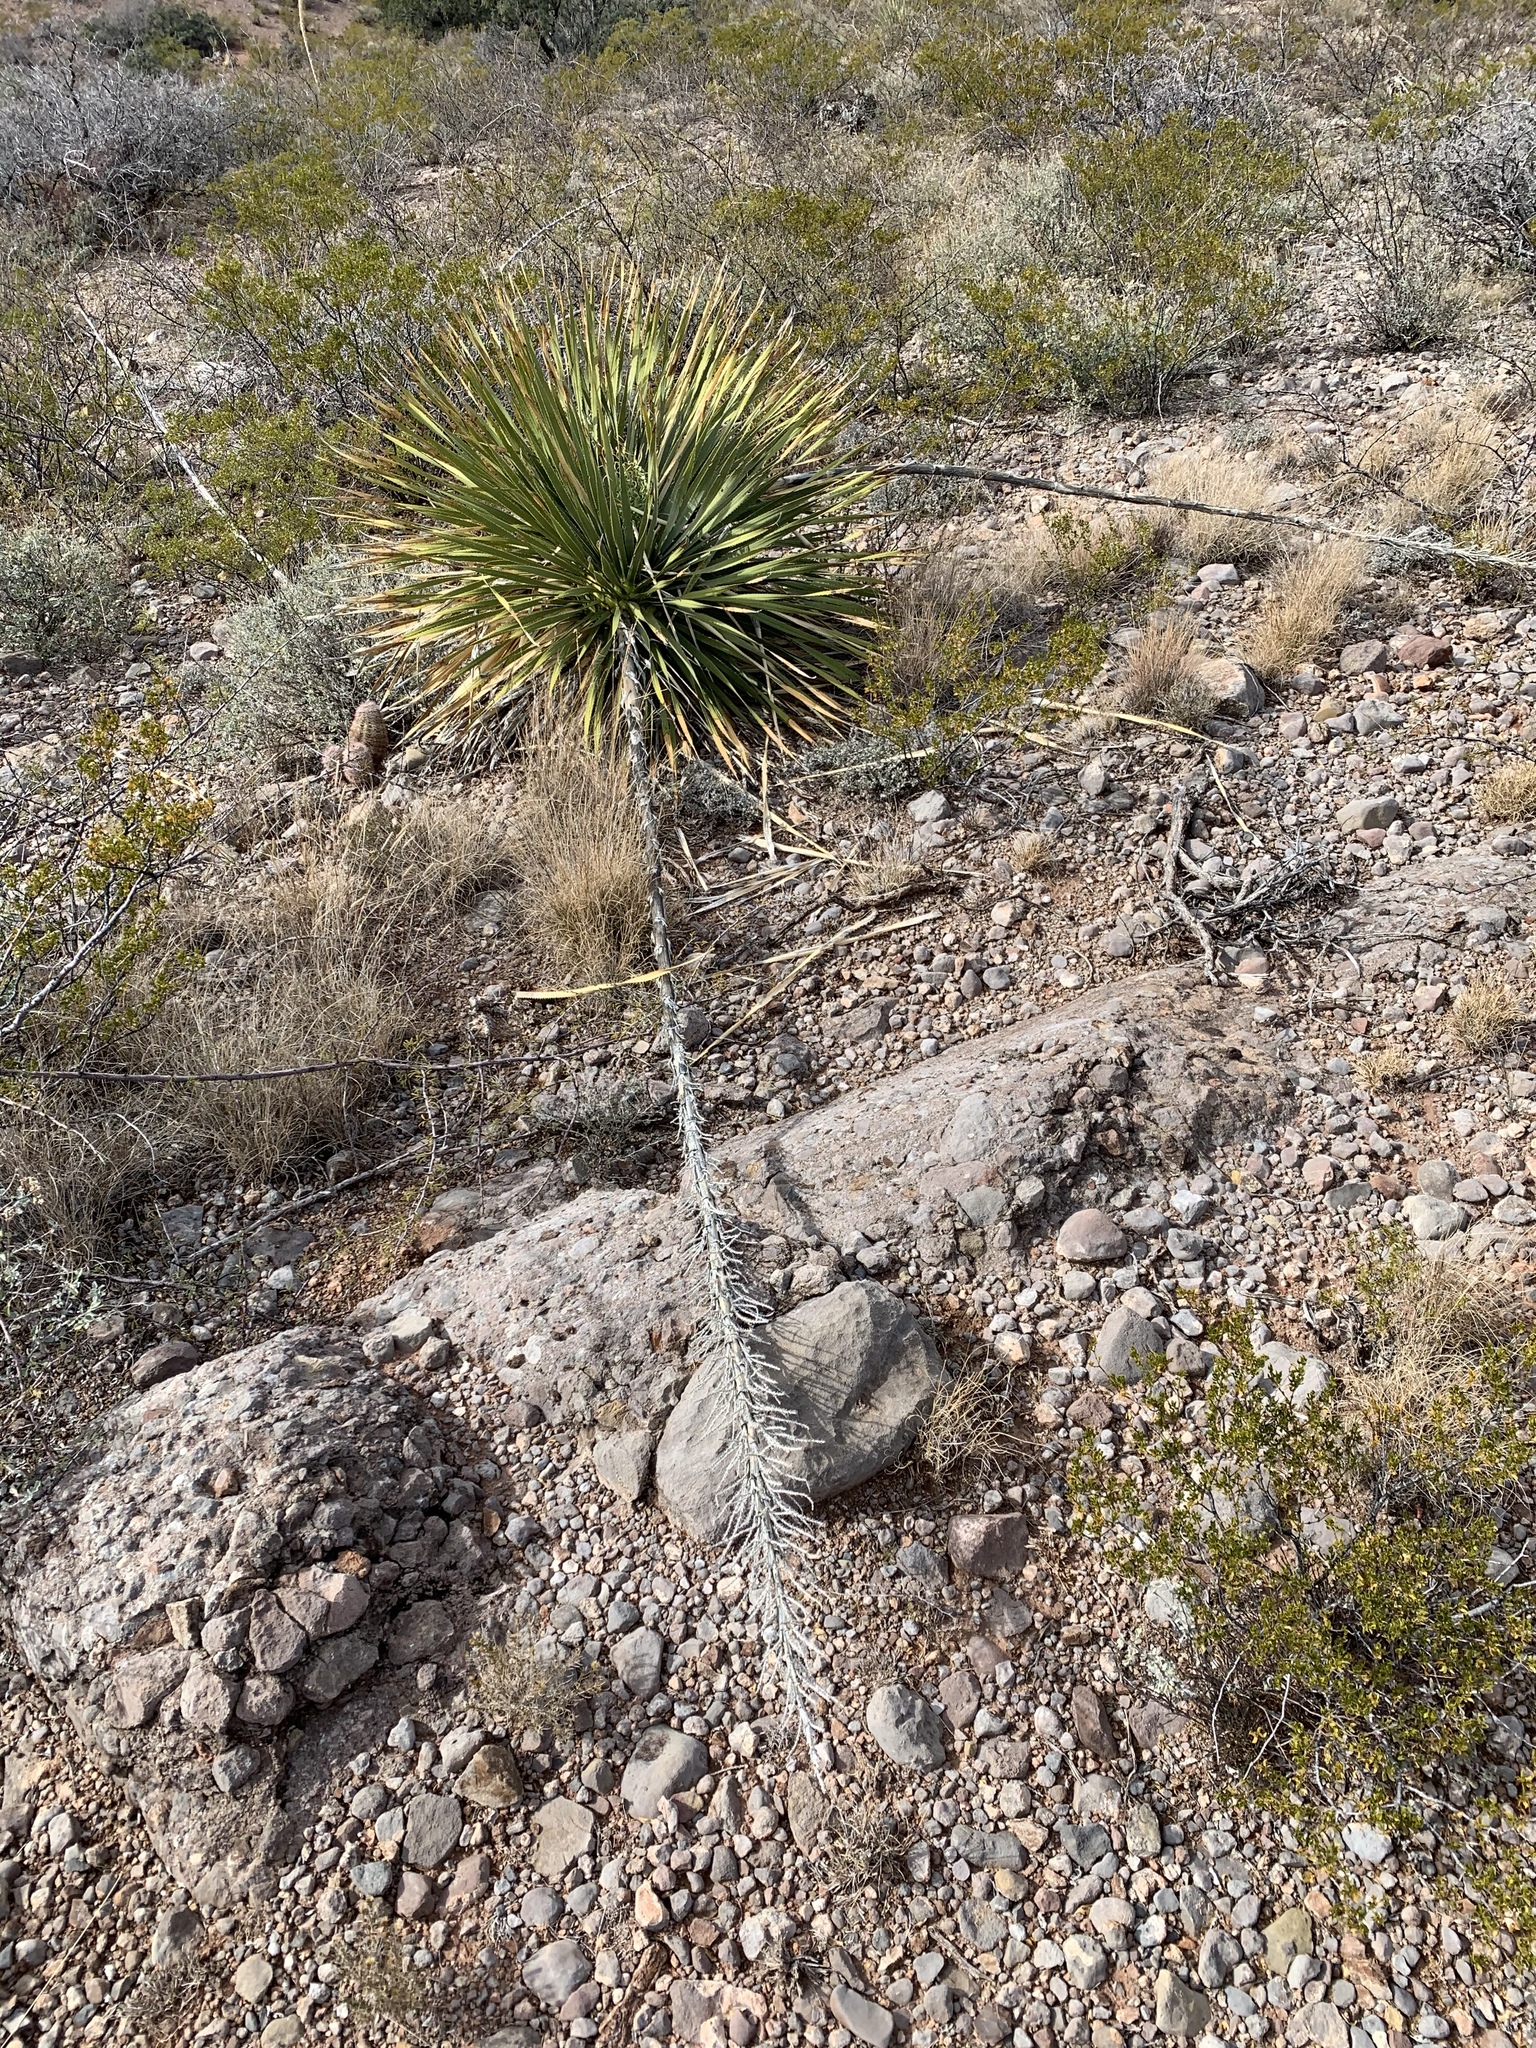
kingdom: Plantae
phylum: Tracheophyta
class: Liliopsida
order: Asparagales
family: Asparagaceae
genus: Dasylirion
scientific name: Dasylirion wheeleri
